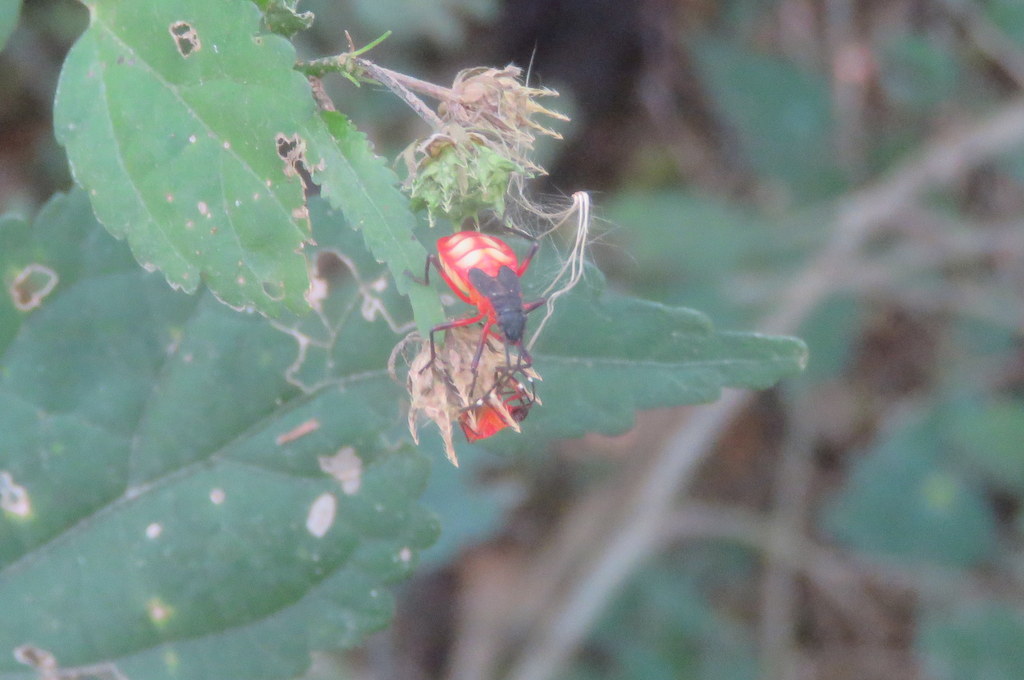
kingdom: Animalia
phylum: Arthropoda
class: Insecta
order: Hemiptera
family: Pyrrhocoridae
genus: Dysdercus
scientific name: Dysdercus albofasciatus
